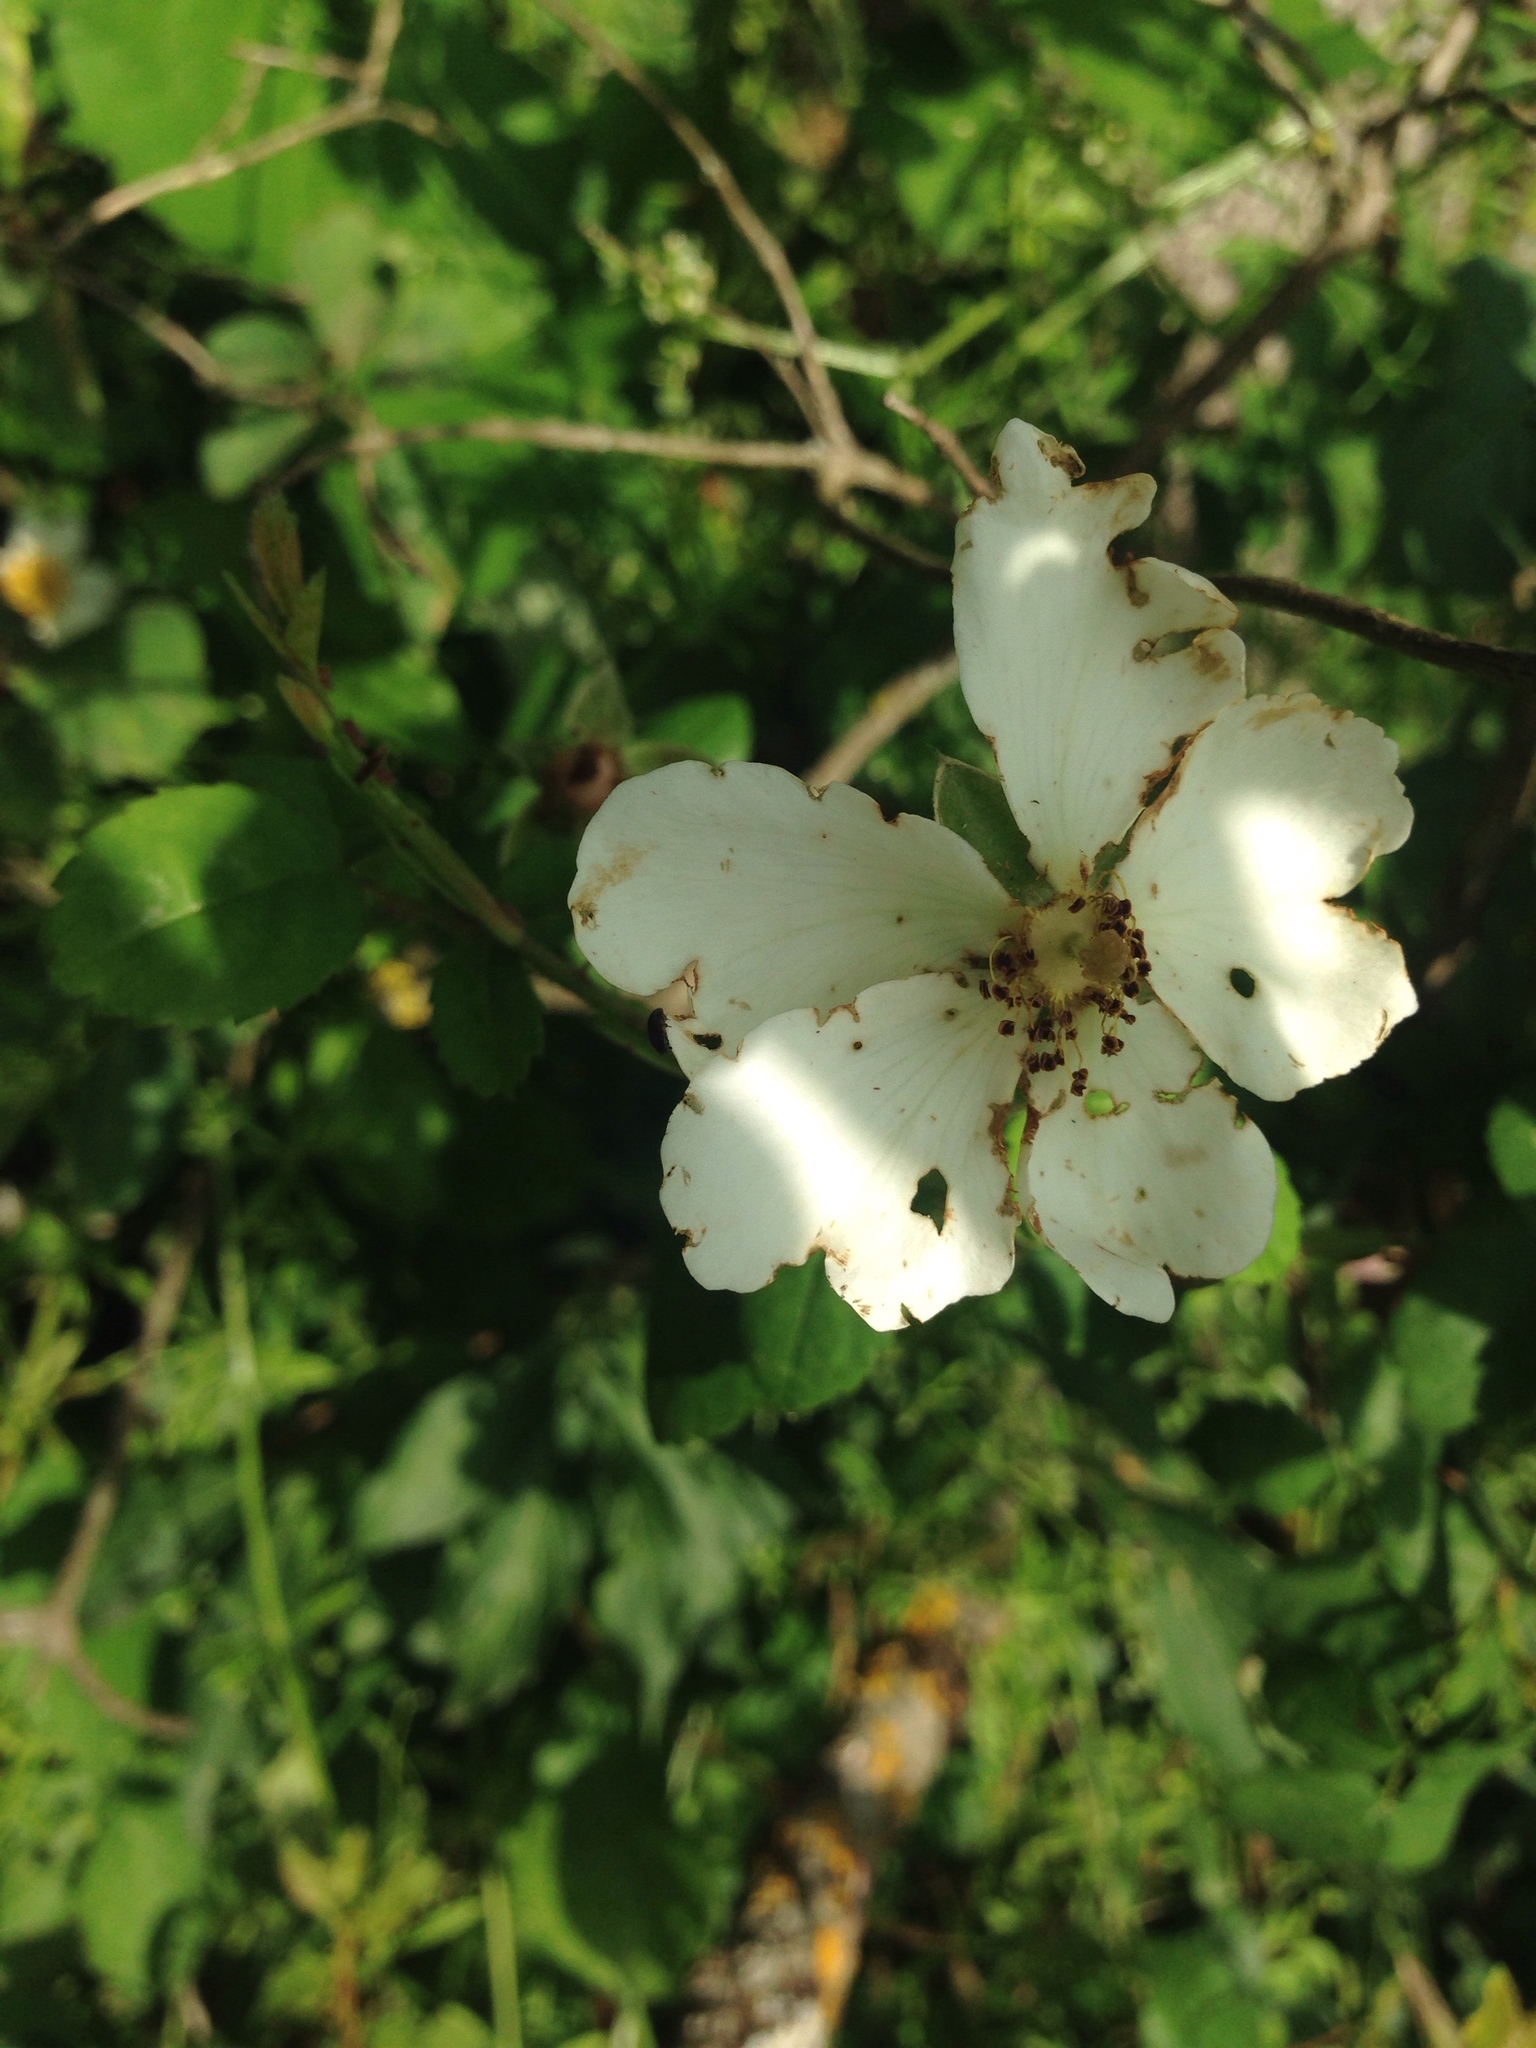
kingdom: Plantae
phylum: Tracheophyta
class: Magnoliopsida
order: Rosales
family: Rosaceae
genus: Rosa
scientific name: Rosa arvensis
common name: Field rose
